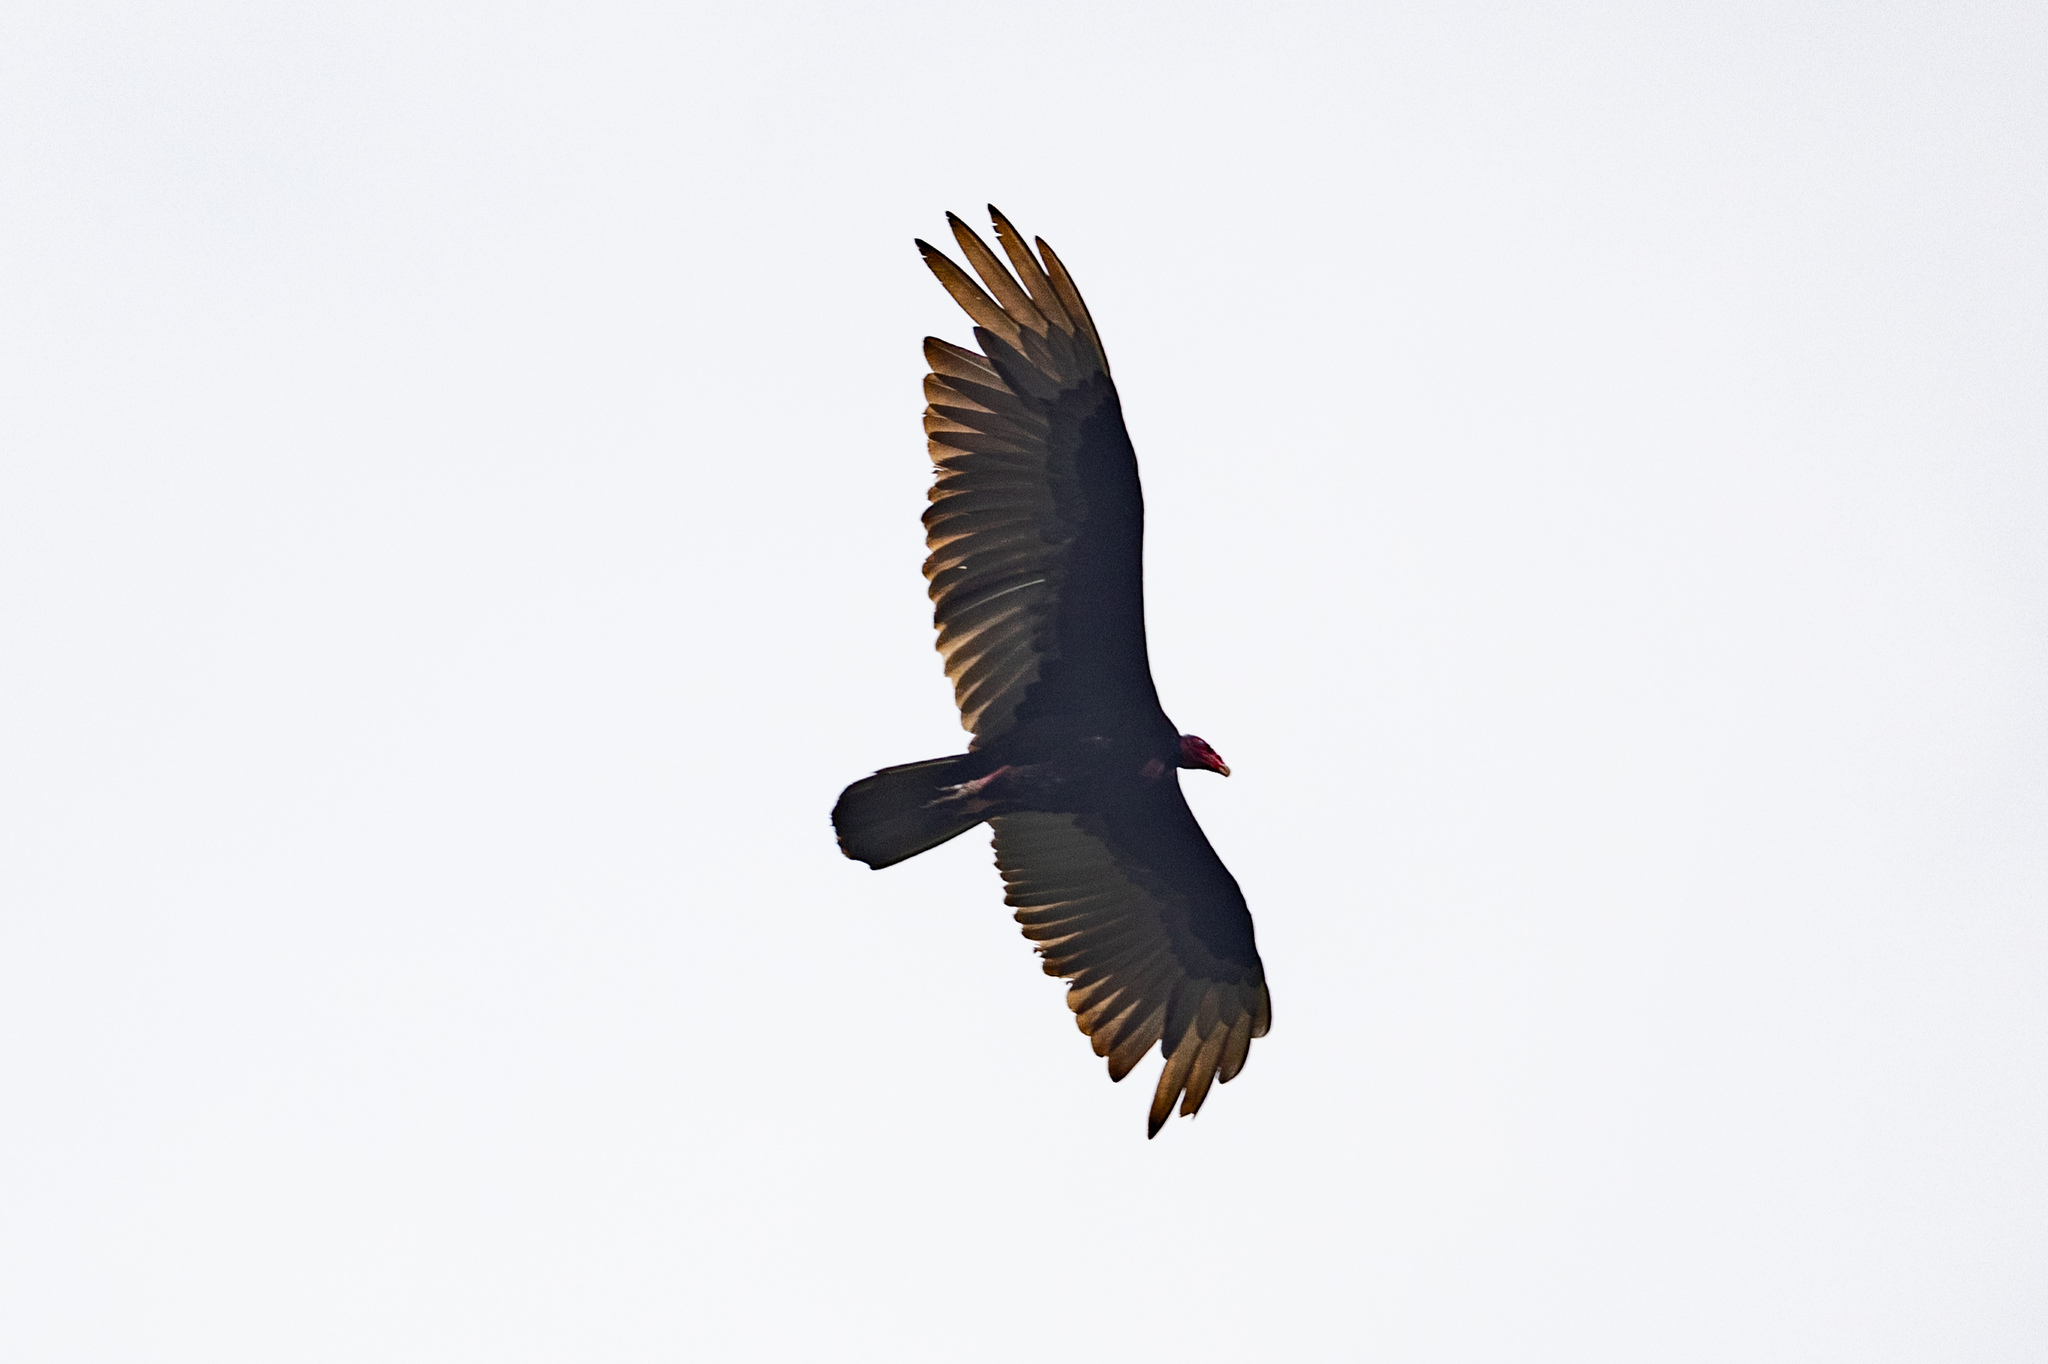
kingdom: Animalia
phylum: Chordata
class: Aves
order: Accipitriformes
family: Cathartidae
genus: Cathartes
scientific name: Cathartes aura
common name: Turkey vulture
